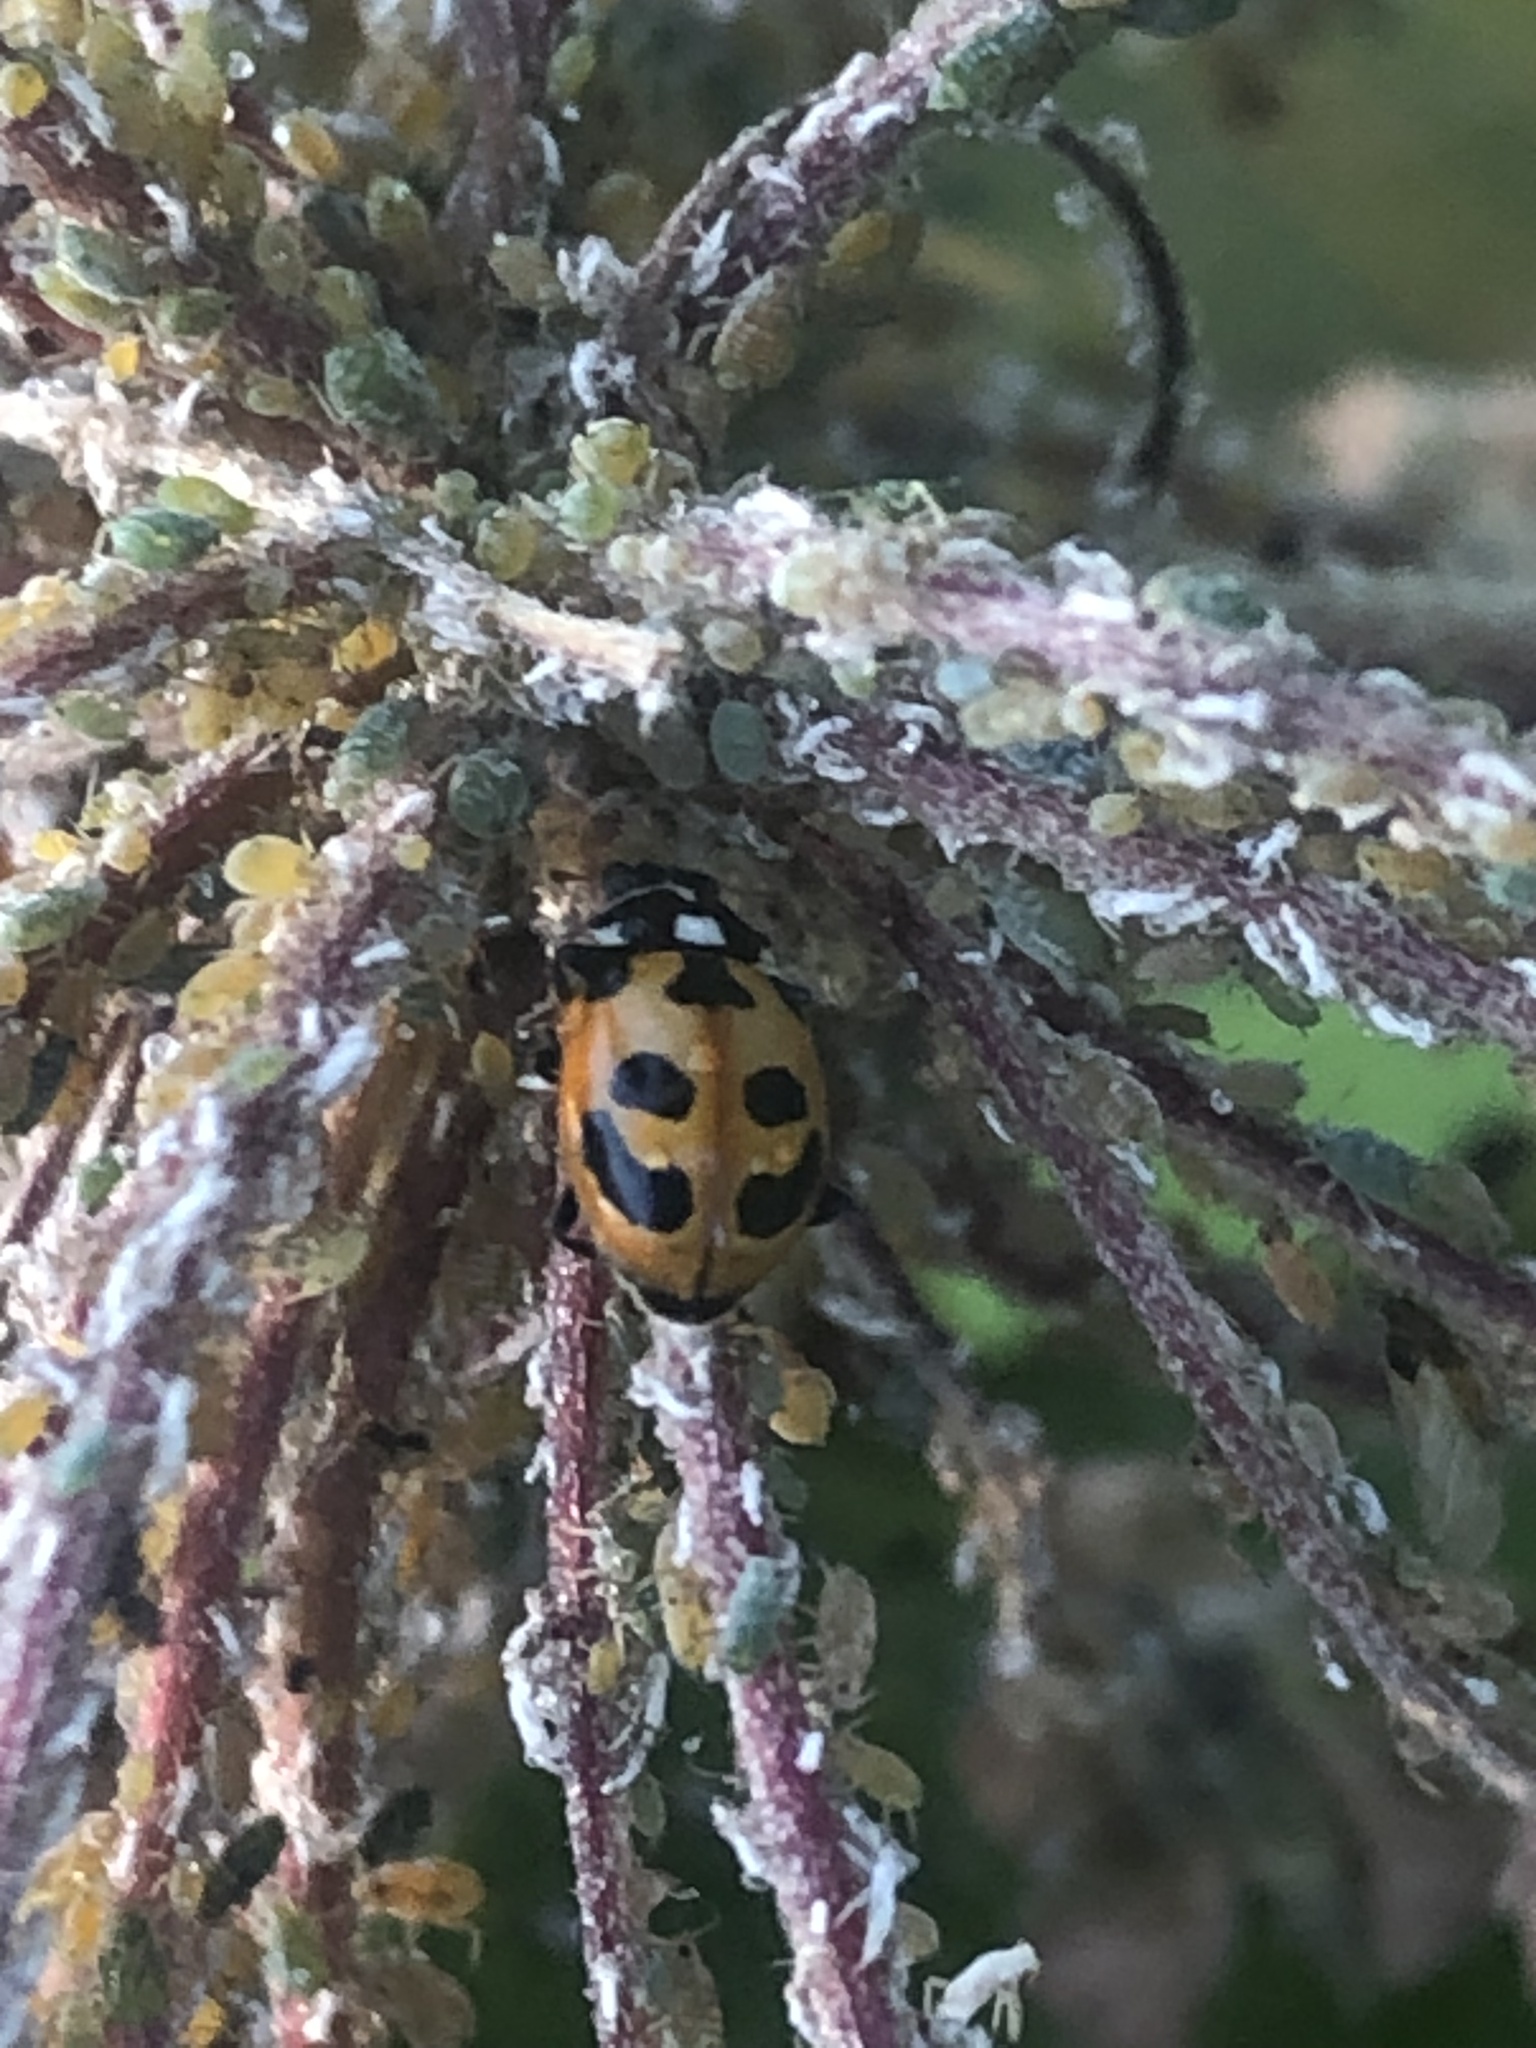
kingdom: Animalia
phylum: Arthropoda
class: Insecta
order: Coleoptera
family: Coccinellidae
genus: Hippodamia
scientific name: Hippodamia parenthesis
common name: Parenthesis lady beetle
